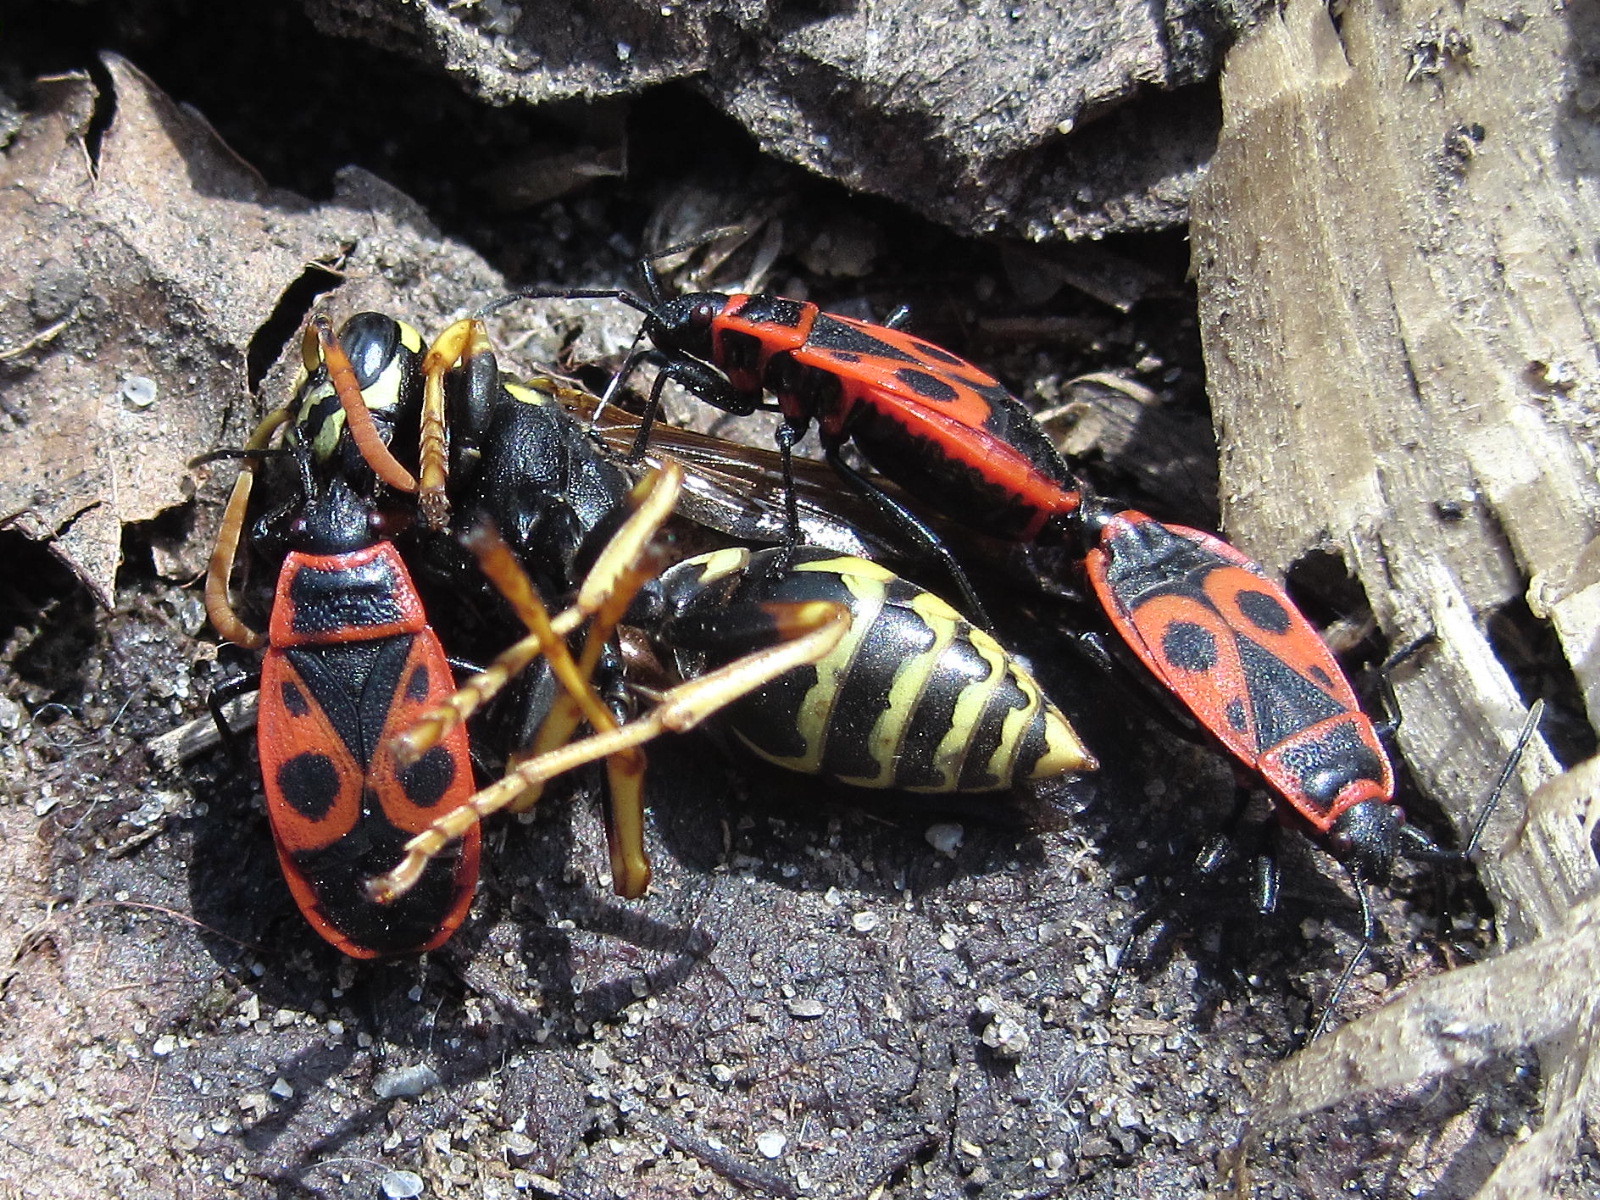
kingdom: Animalia
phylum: Arthropoda
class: Insecta
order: Hemiptera
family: Pyrrhocoridae
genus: Pyrrhocoris
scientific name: Pyrrhocoris apterus
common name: Firebug
